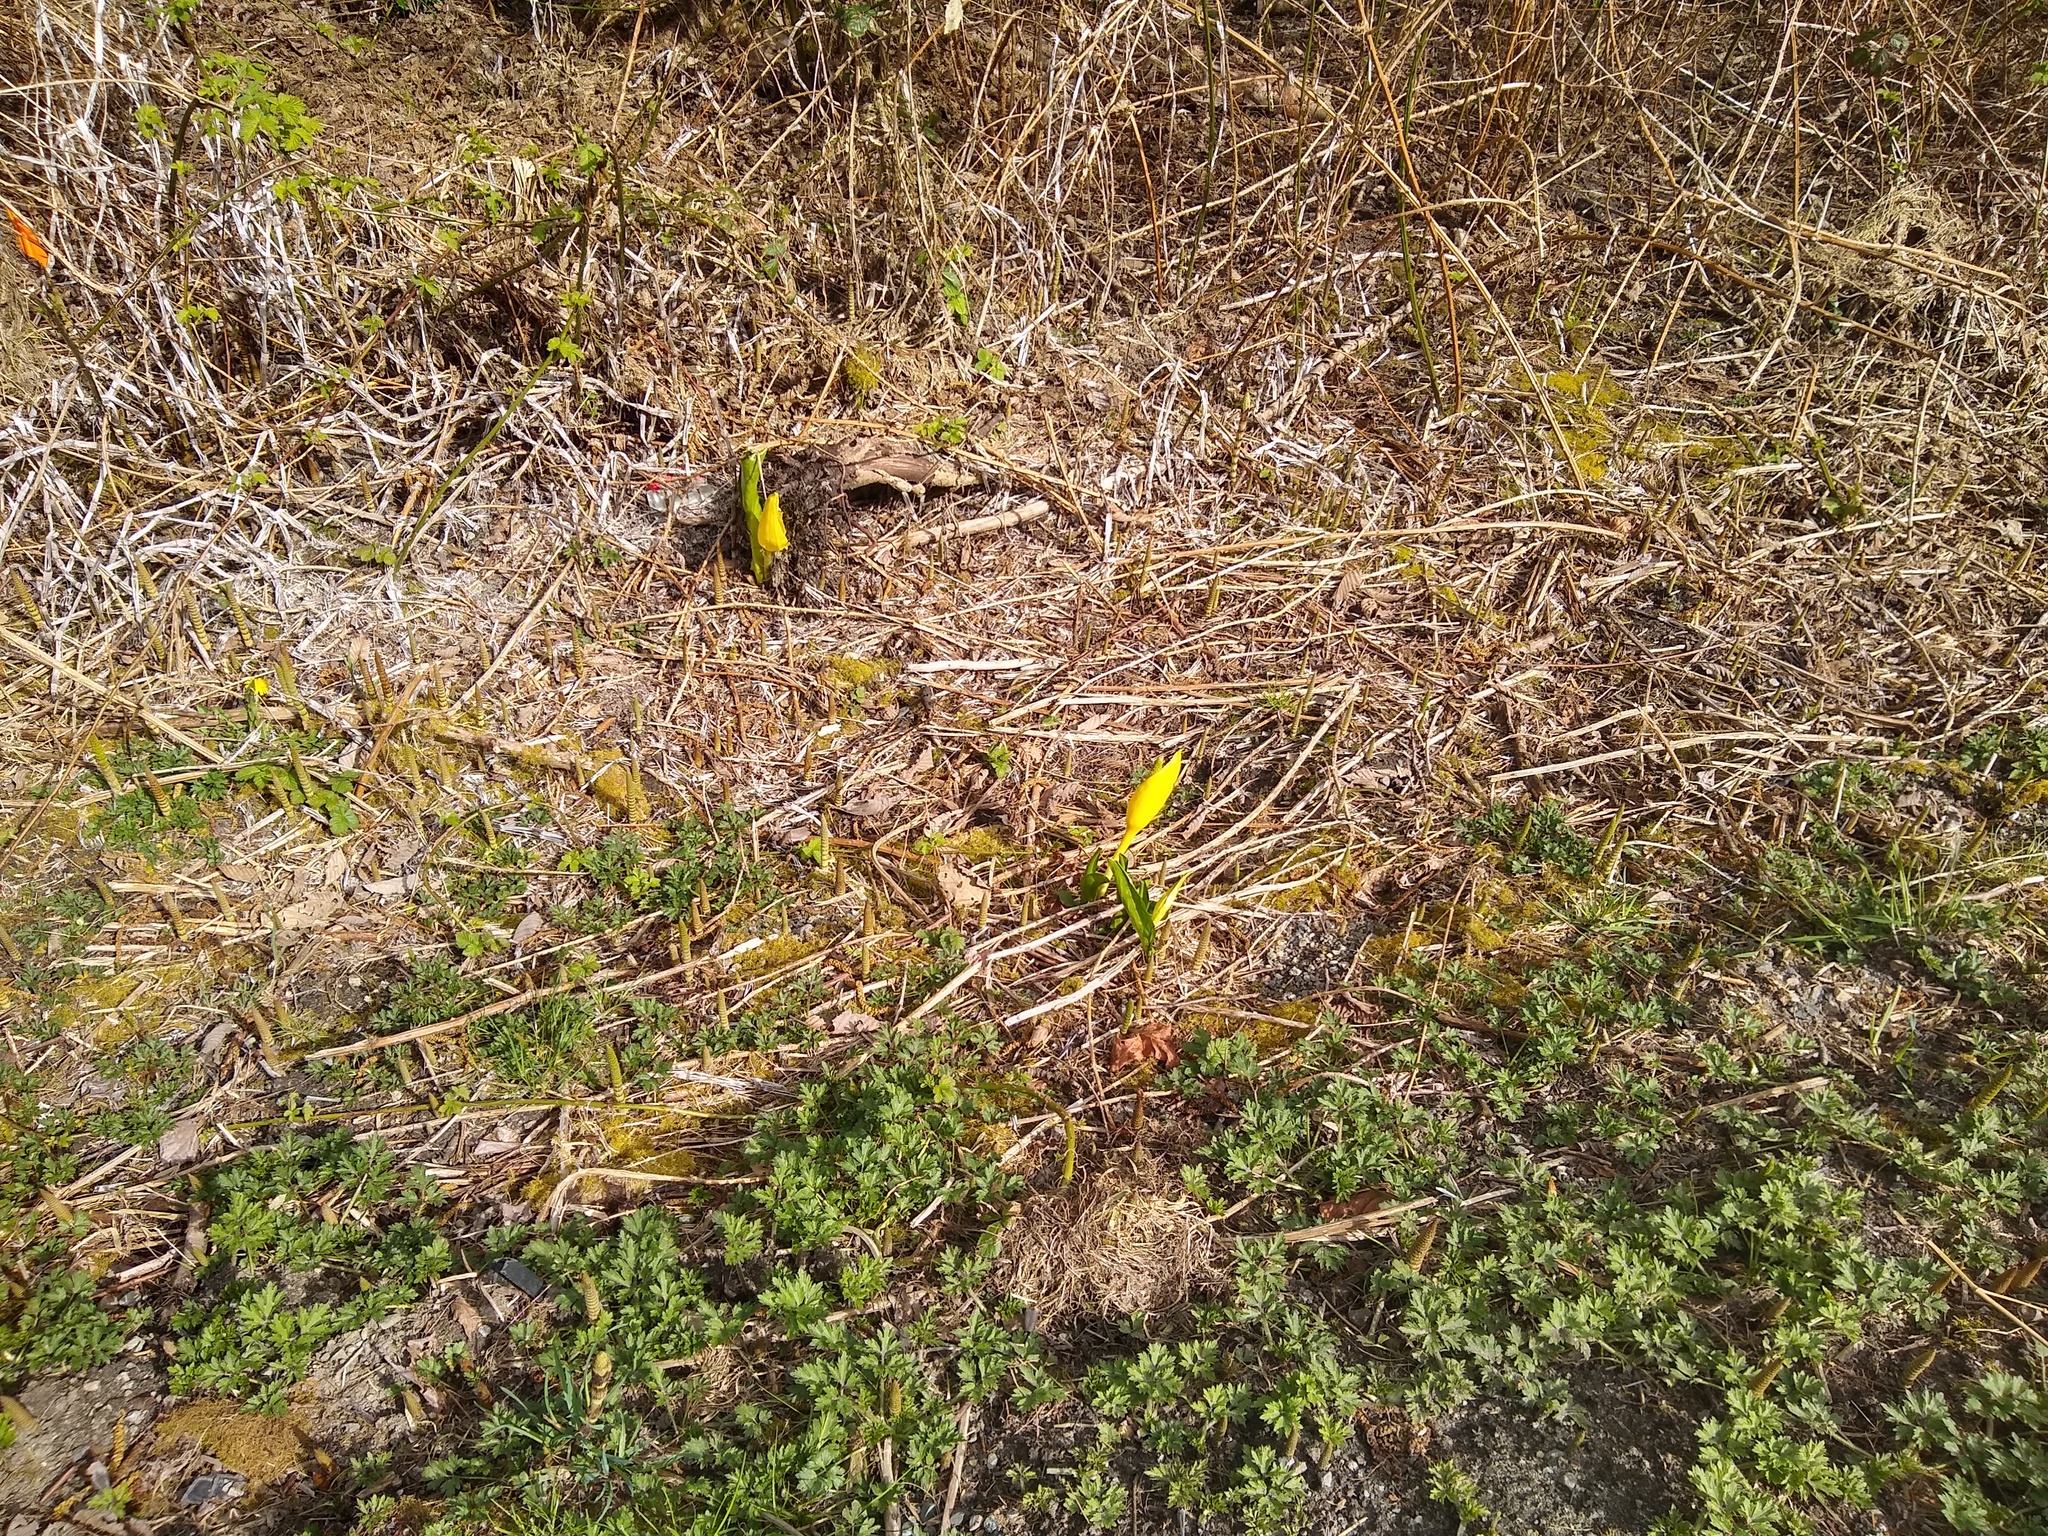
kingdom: Plantae
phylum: Tracheophyta
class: Liliopsida
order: Alismatales
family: Araceae
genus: Lysichiton
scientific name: Lysichiton americanus
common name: American skunk cabbage
